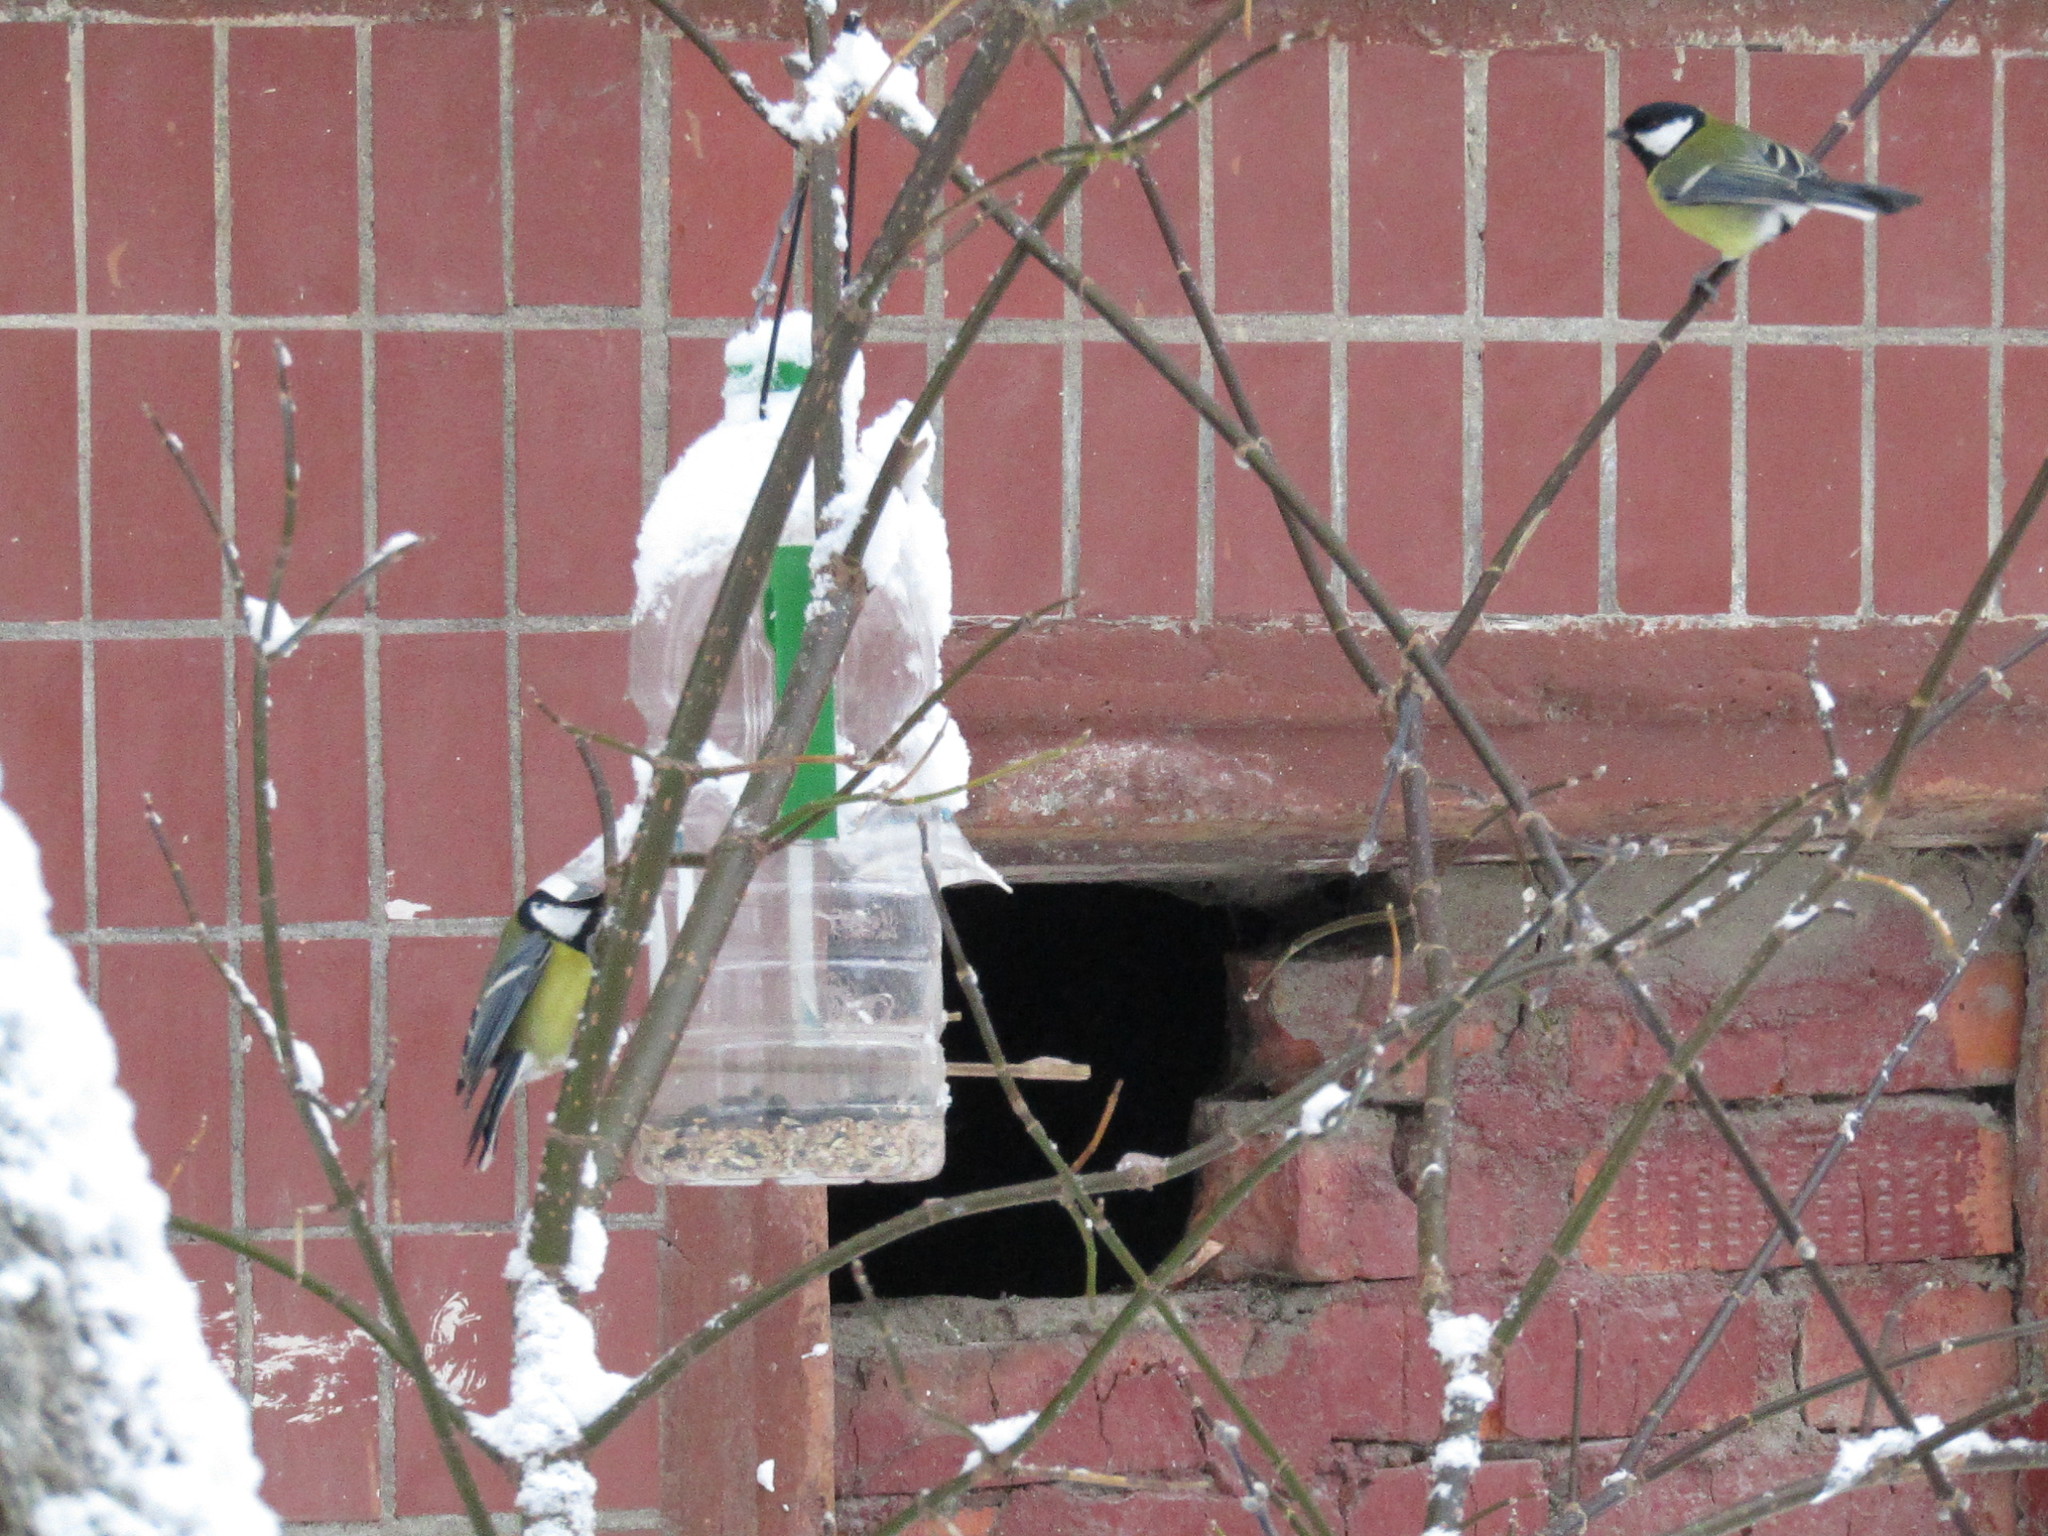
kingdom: Animalia
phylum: Chordata
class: Aves
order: Passeriformes
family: Paridae
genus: Parus
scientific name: Parus major
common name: Great tit
